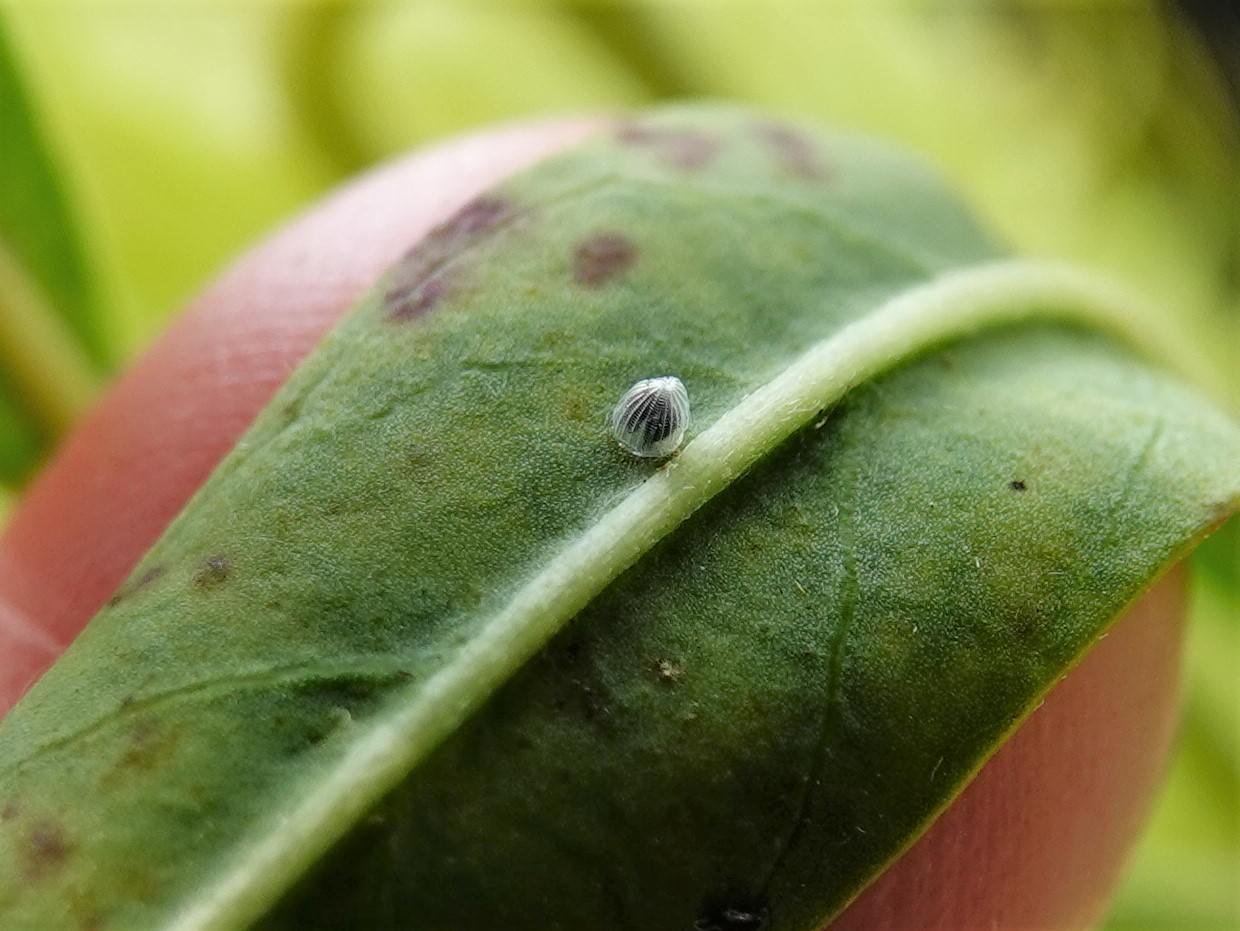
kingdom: Animalia
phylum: Arthropoda
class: Insecta
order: Lepidoptera
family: Nymphalidae
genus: Danaus
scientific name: Danaus plexippus
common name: Monarch
